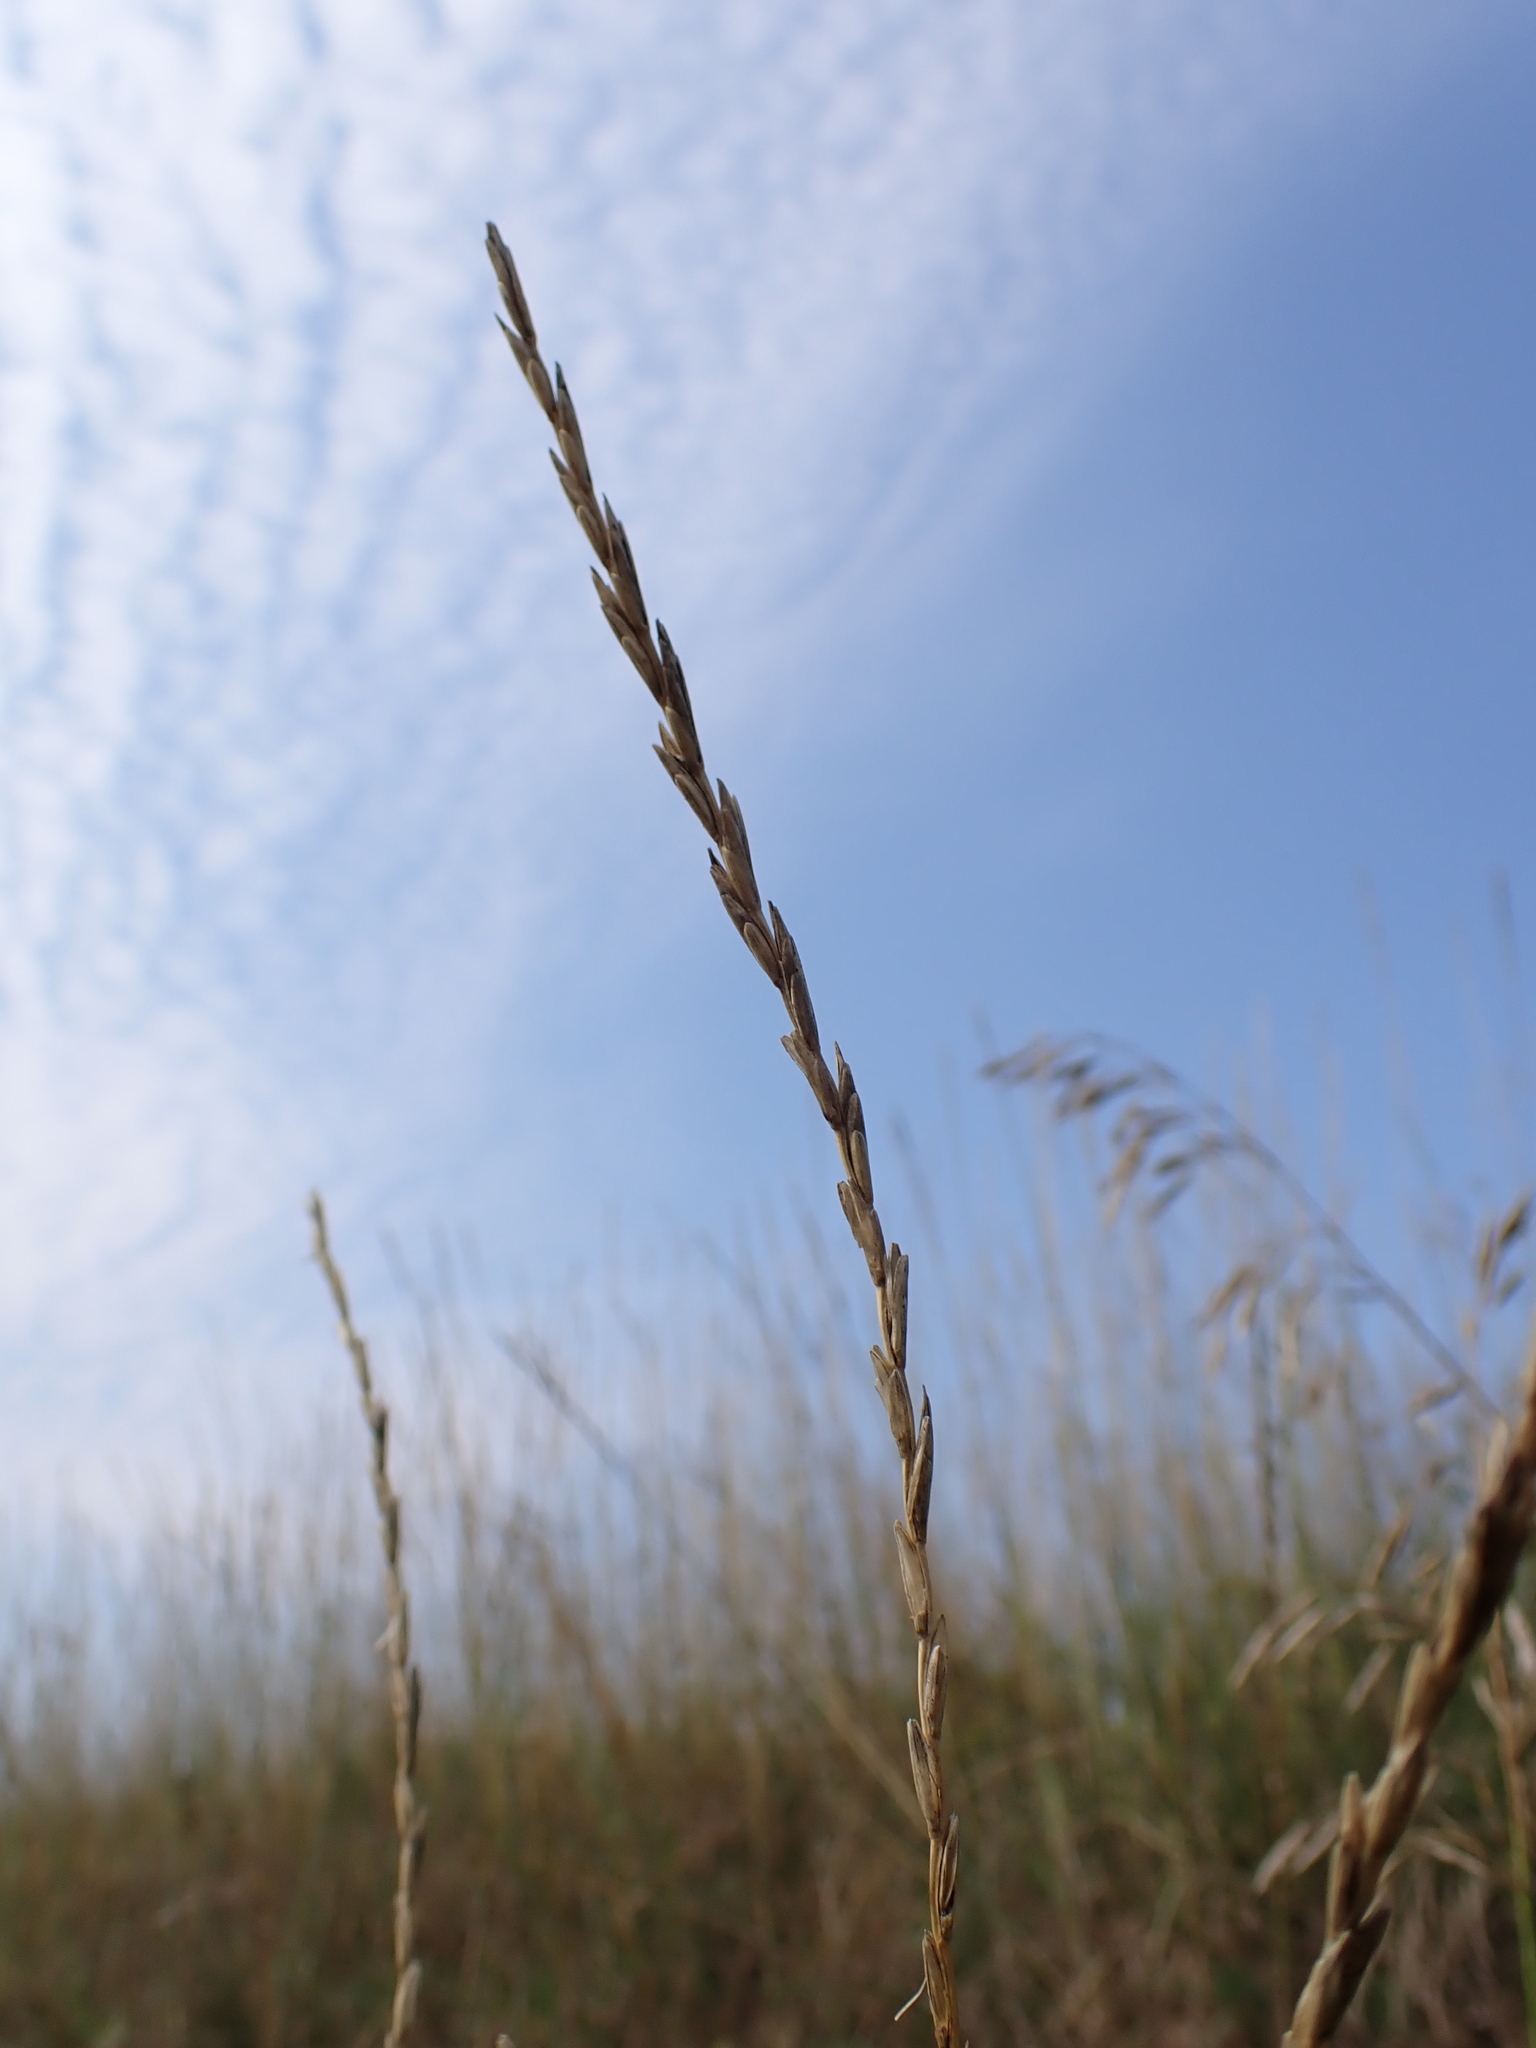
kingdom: Plantae
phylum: Tracheophyta
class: Liliopsida
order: Poales
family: Poaceae
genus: Thinopyrum
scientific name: Thinopyrum intermedium
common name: Intermediate wheatgrass
